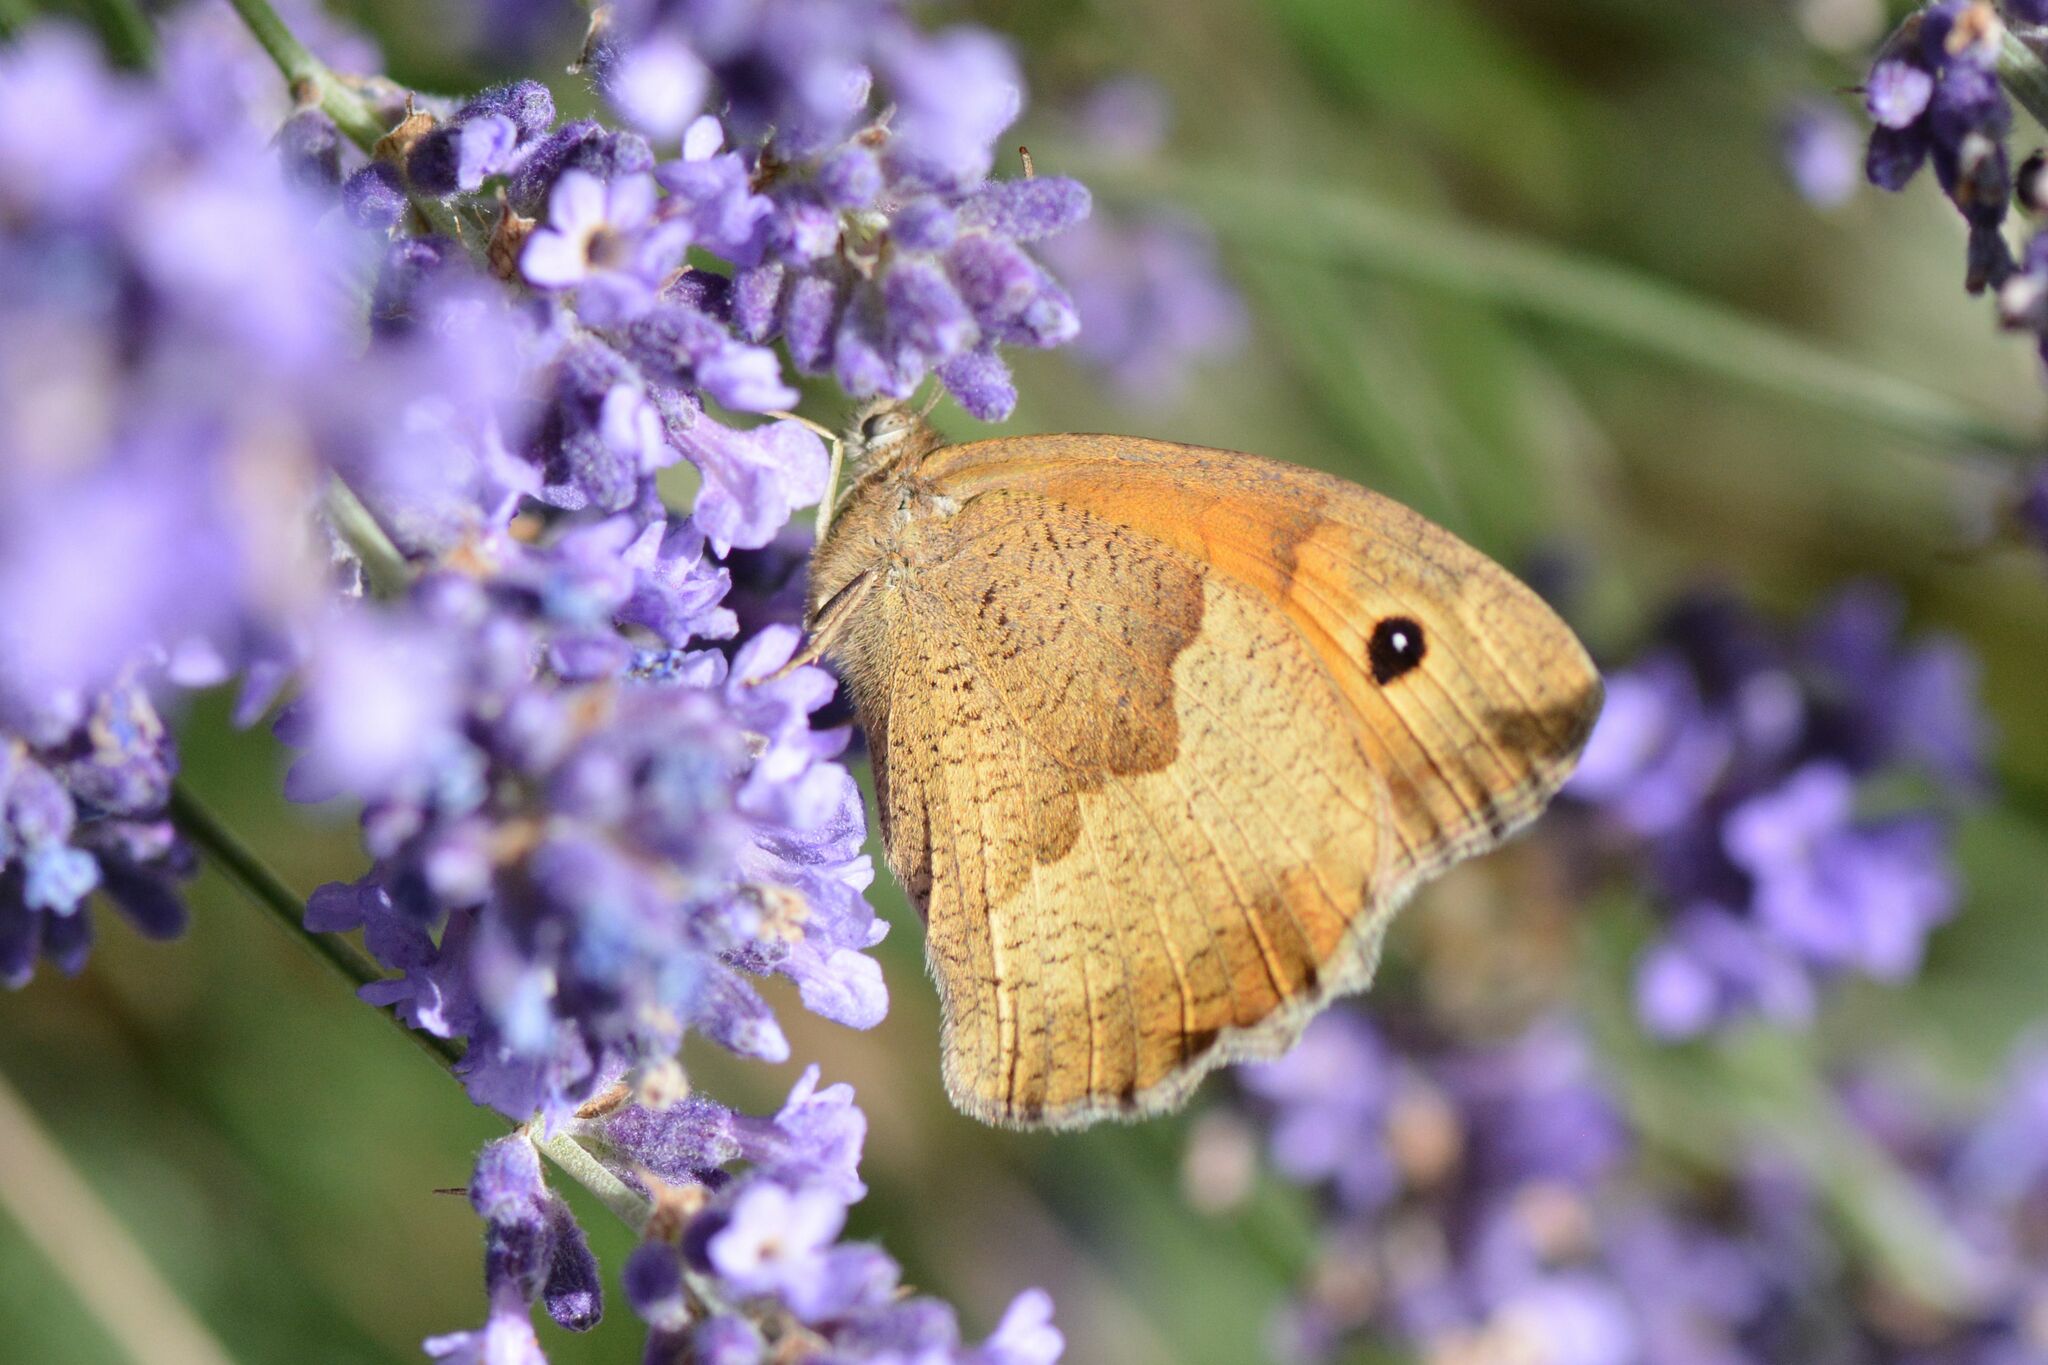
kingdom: Animalia
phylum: Arthropoda
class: Insecta
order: Lepidoptera
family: Nymphalidae
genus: Maniola
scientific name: Maniola jurtina
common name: Meadow brown
